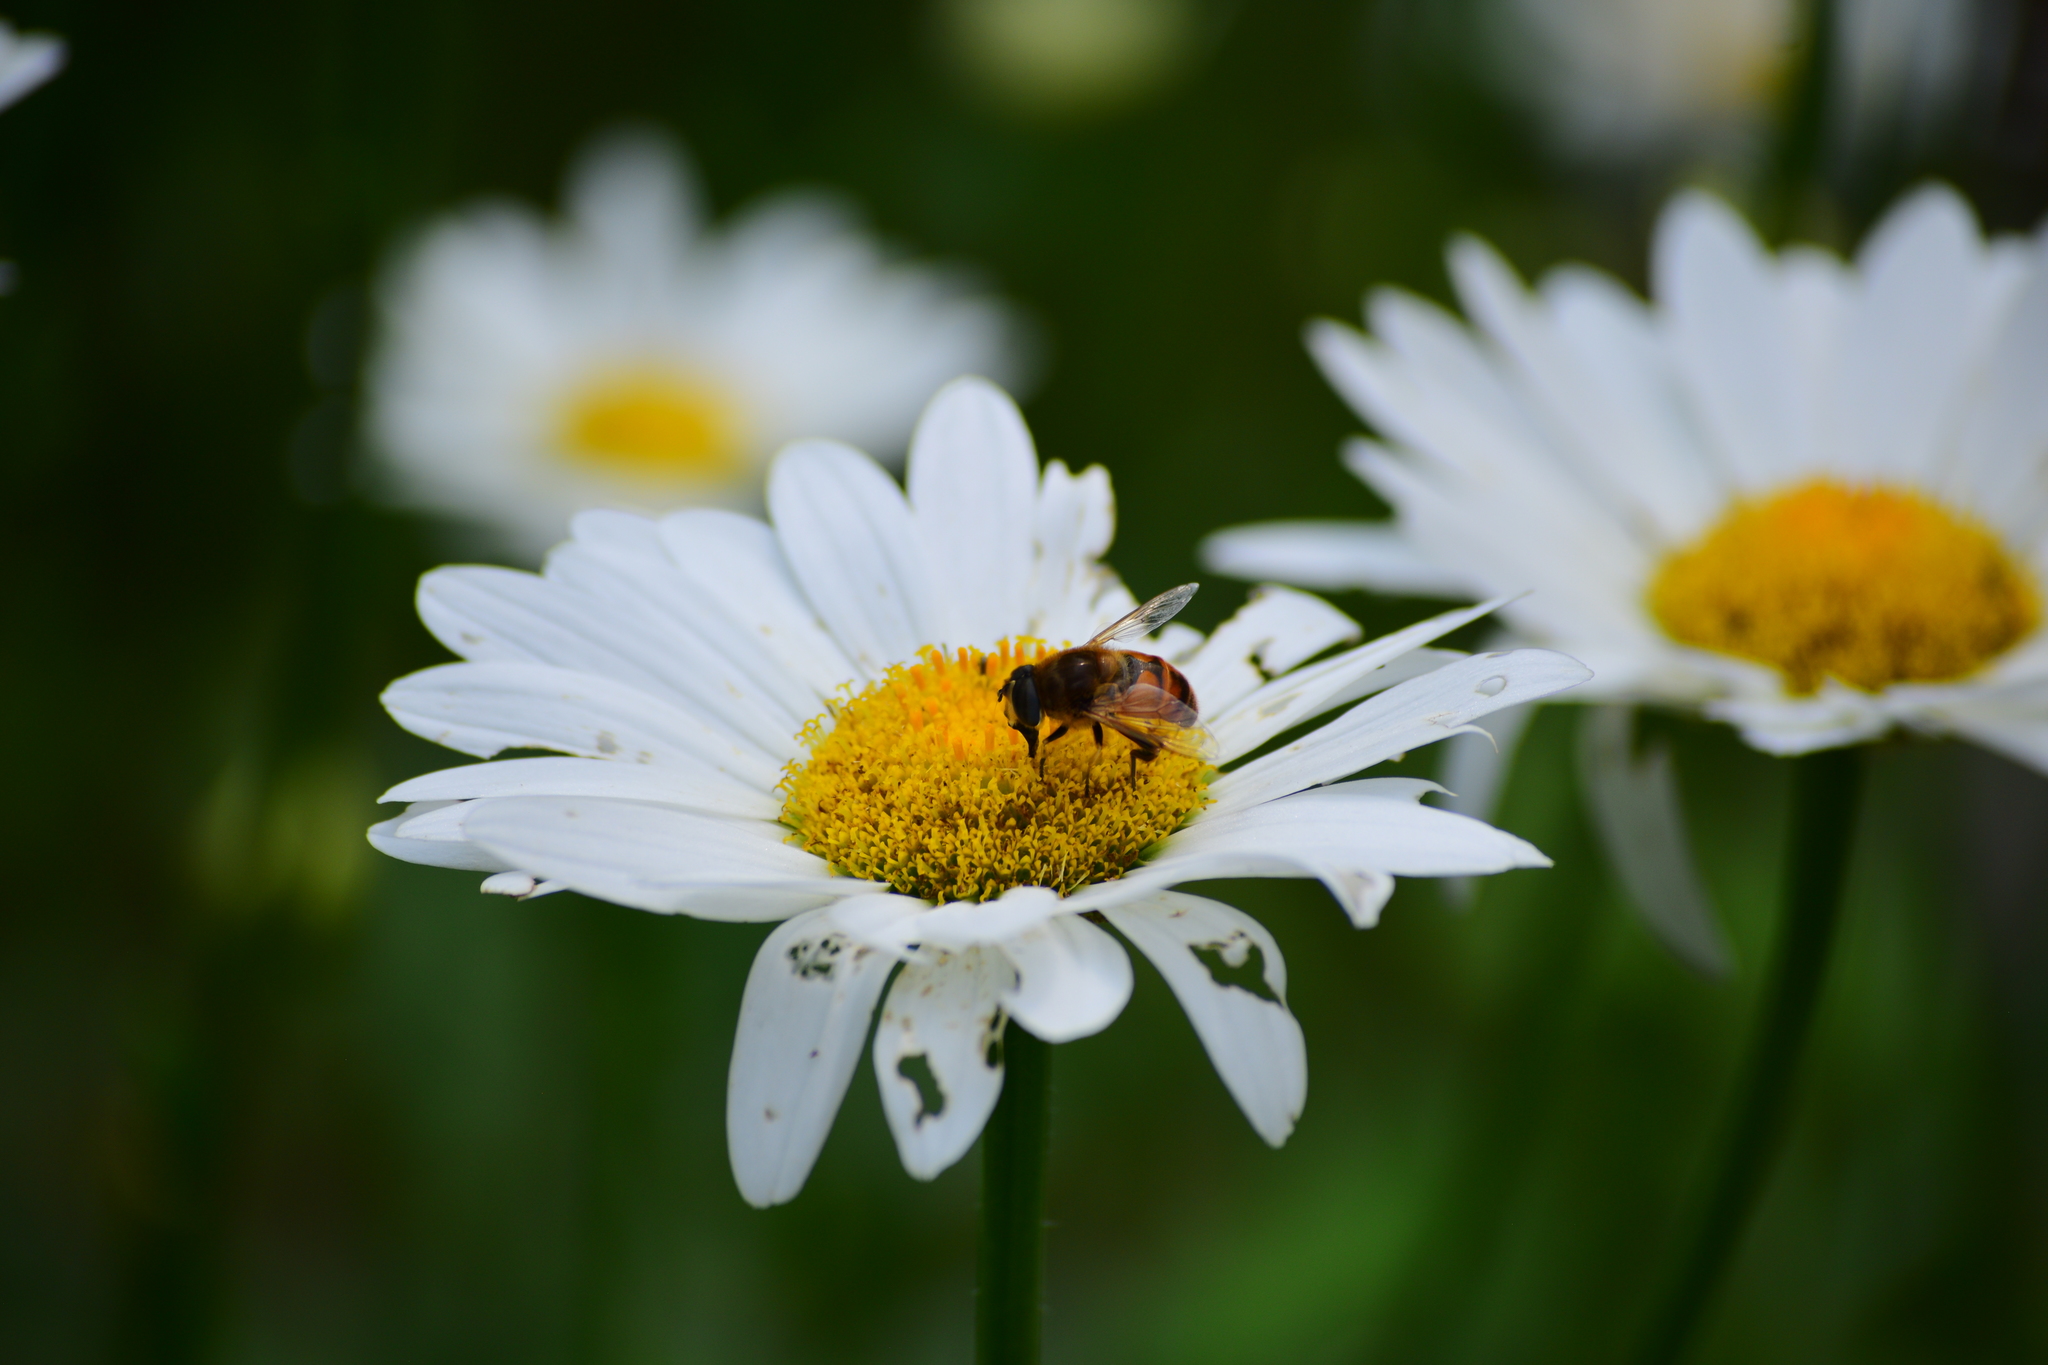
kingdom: Animalia
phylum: Arthropoda
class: Insecta
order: Diptera
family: Syrphidae
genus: Eristalis
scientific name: Eristalis tenax
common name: Drone fly
